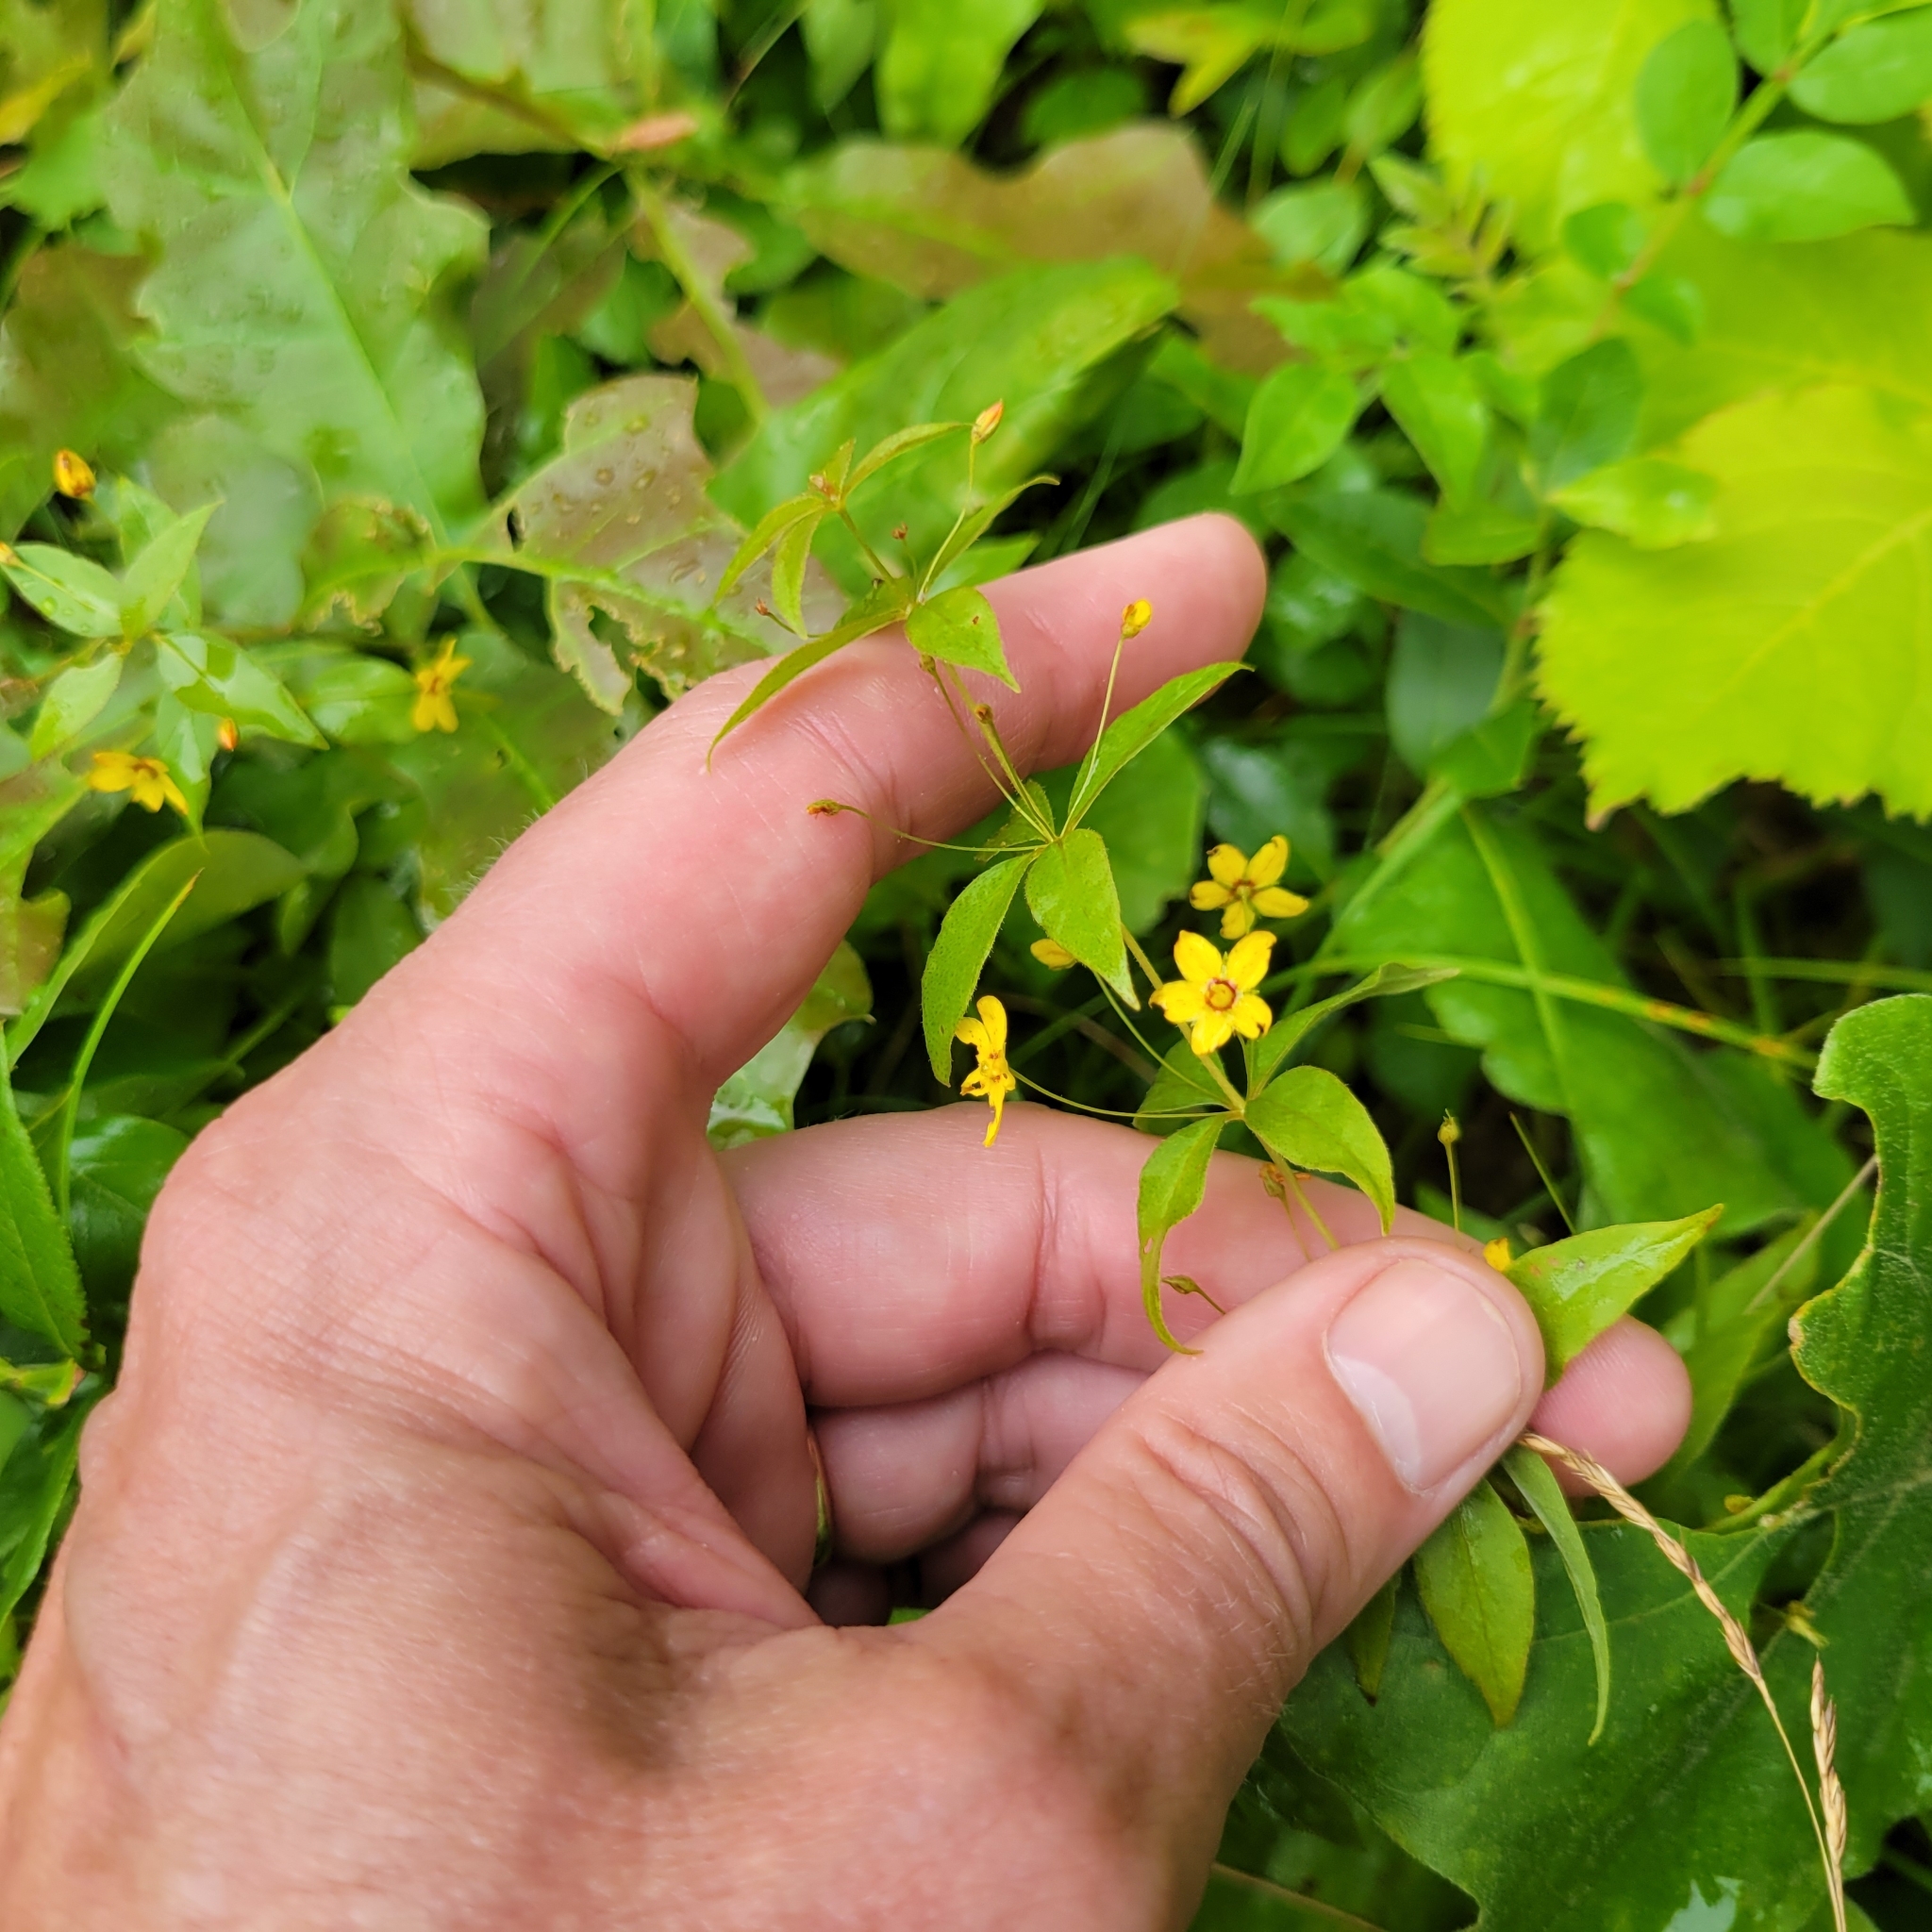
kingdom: Plantae
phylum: Tracheophyta
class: Magnoliopsida
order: Ericales
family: Primulaceae
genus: Lysimachia
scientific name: Lysimachia quadrifolia
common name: Whorled loosestrife
